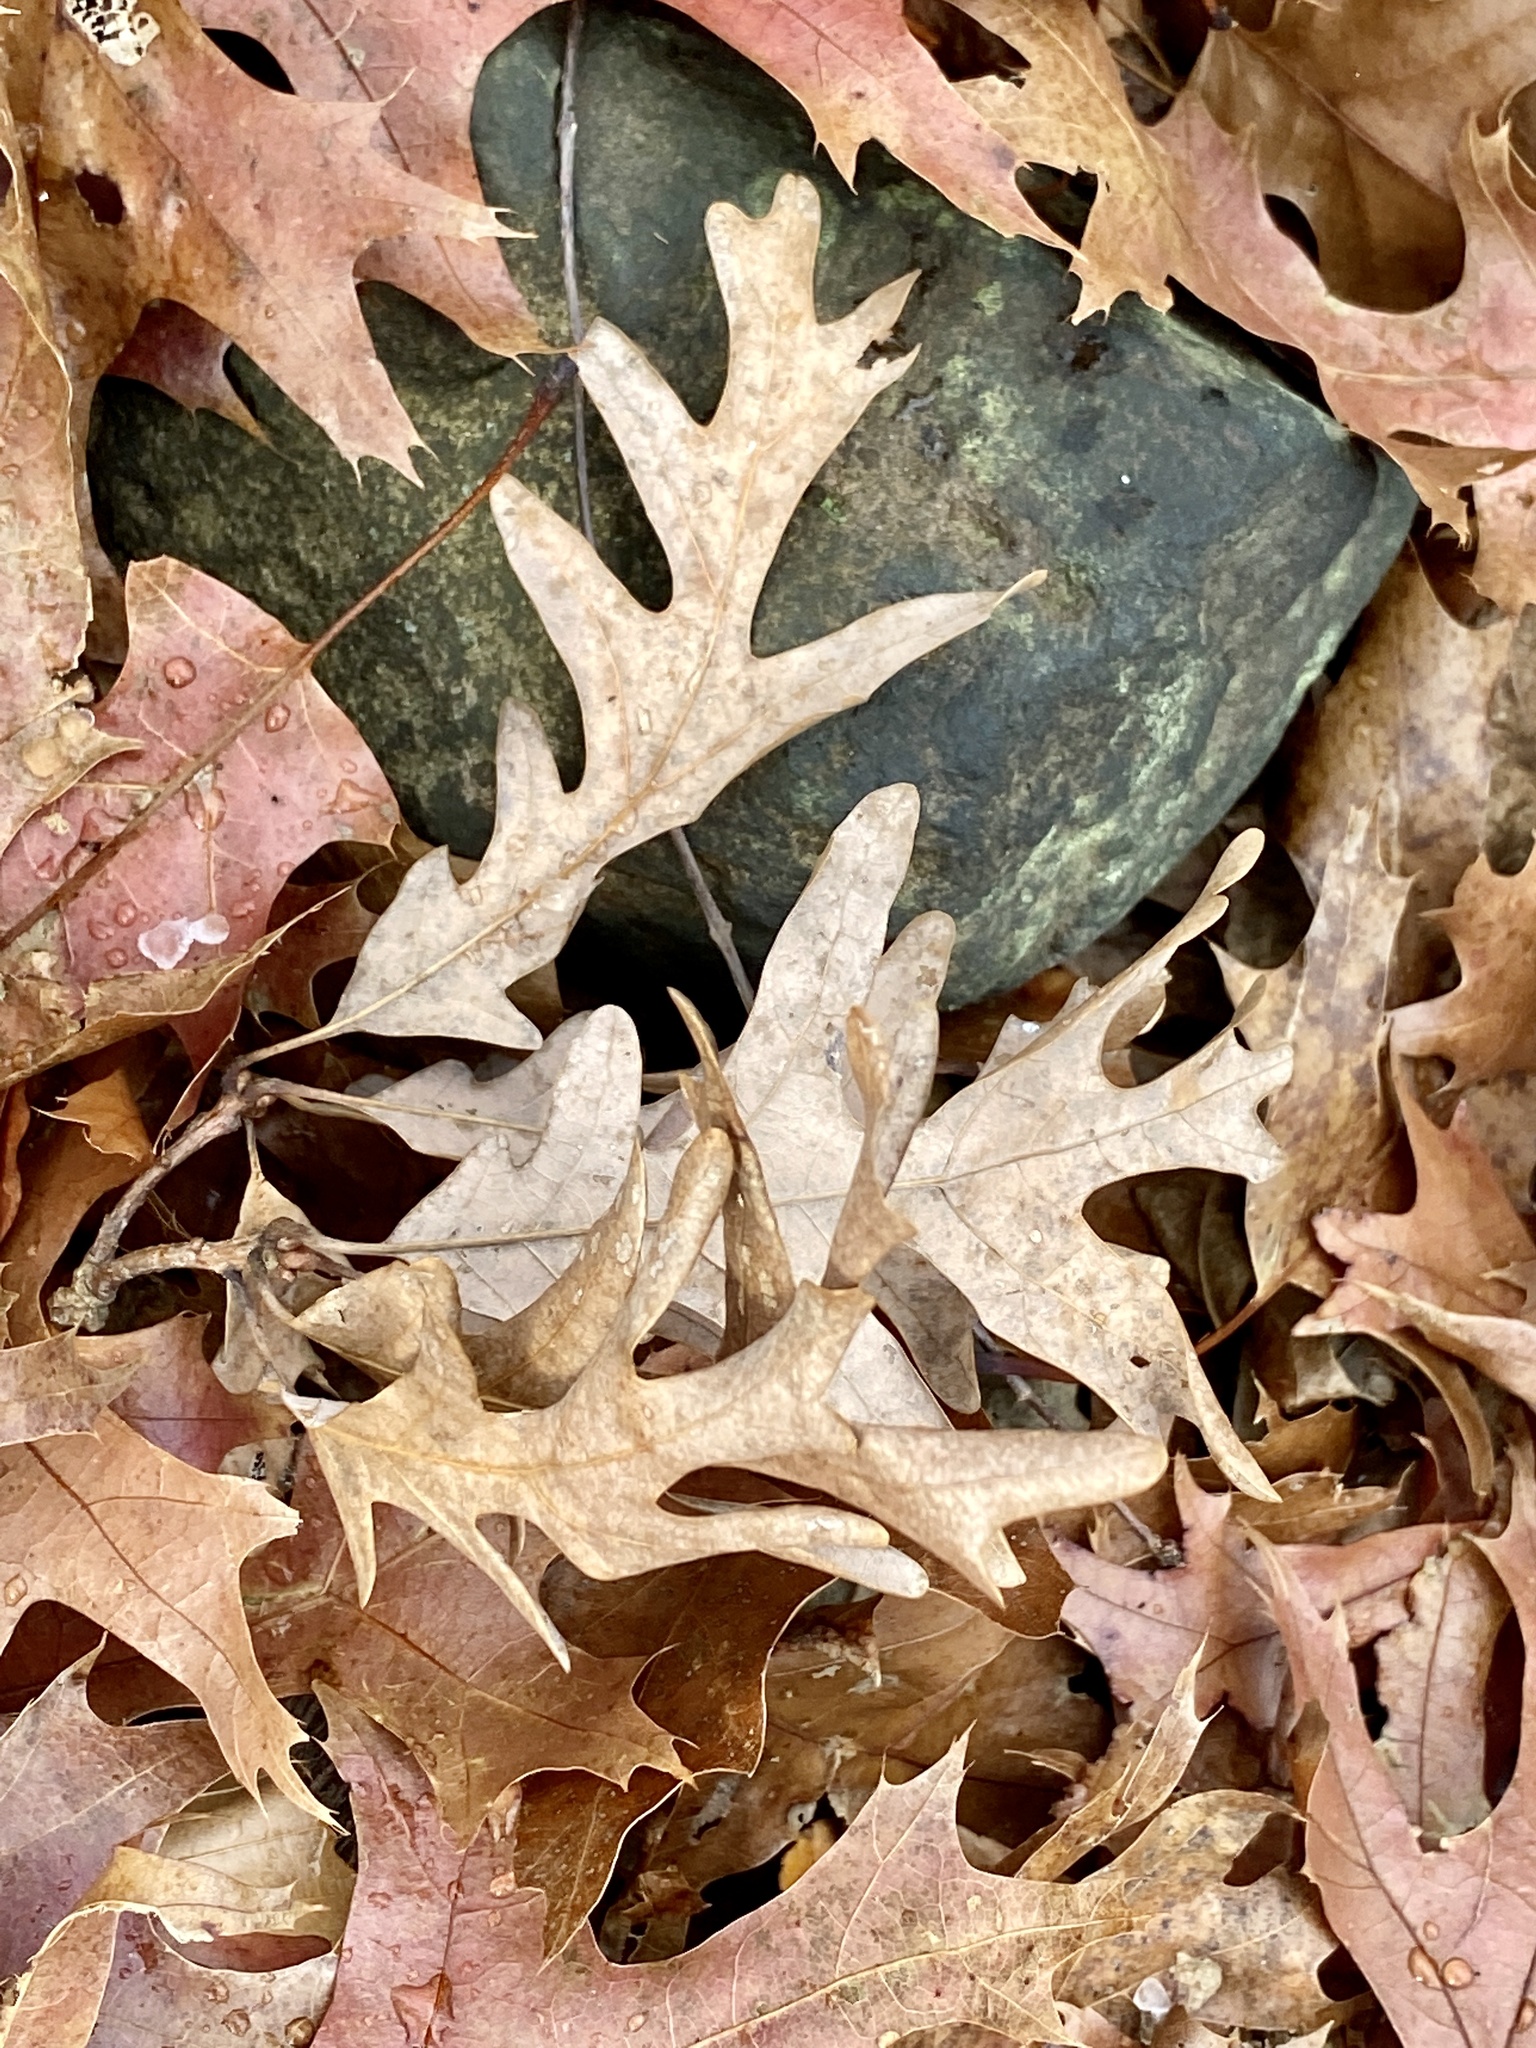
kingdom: Plantae
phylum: Tracheophyta
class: Magnoliopsida
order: Fagales
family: Fagaceae
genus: Quercus
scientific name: Quercus alba
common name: White oak
